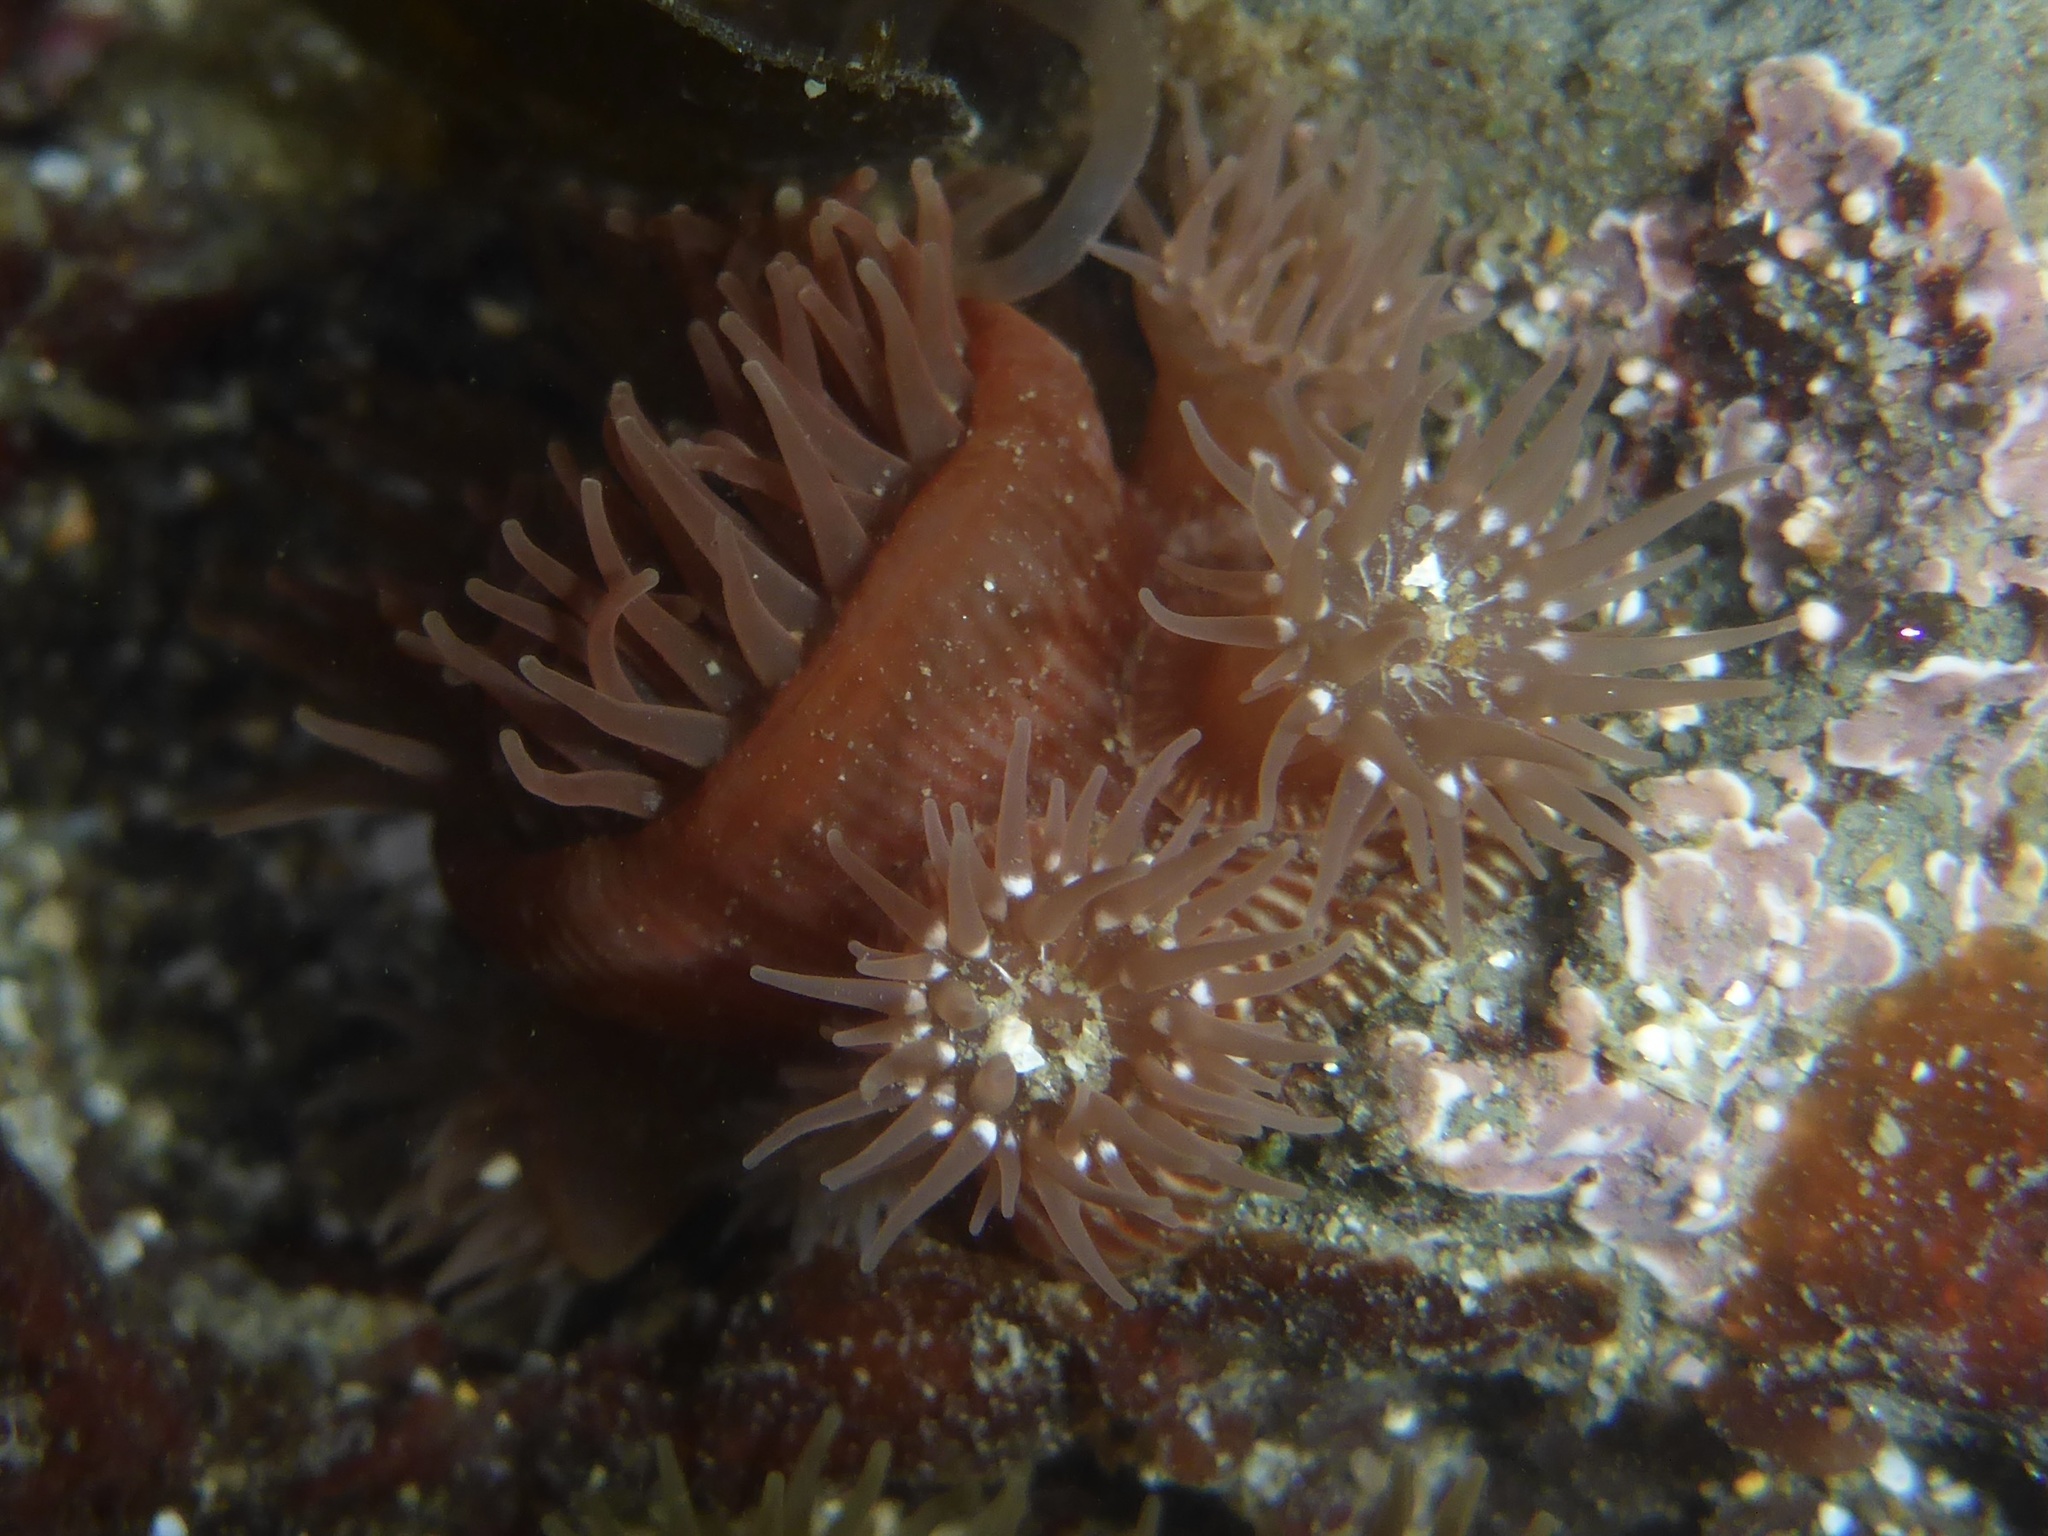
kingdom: Animalia
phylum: Cnidaria
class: Anthozoa
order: Actiniaria
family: Actiniidae
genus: Epiactis
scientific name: Epiactis prolifera
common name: Brooding anemone
